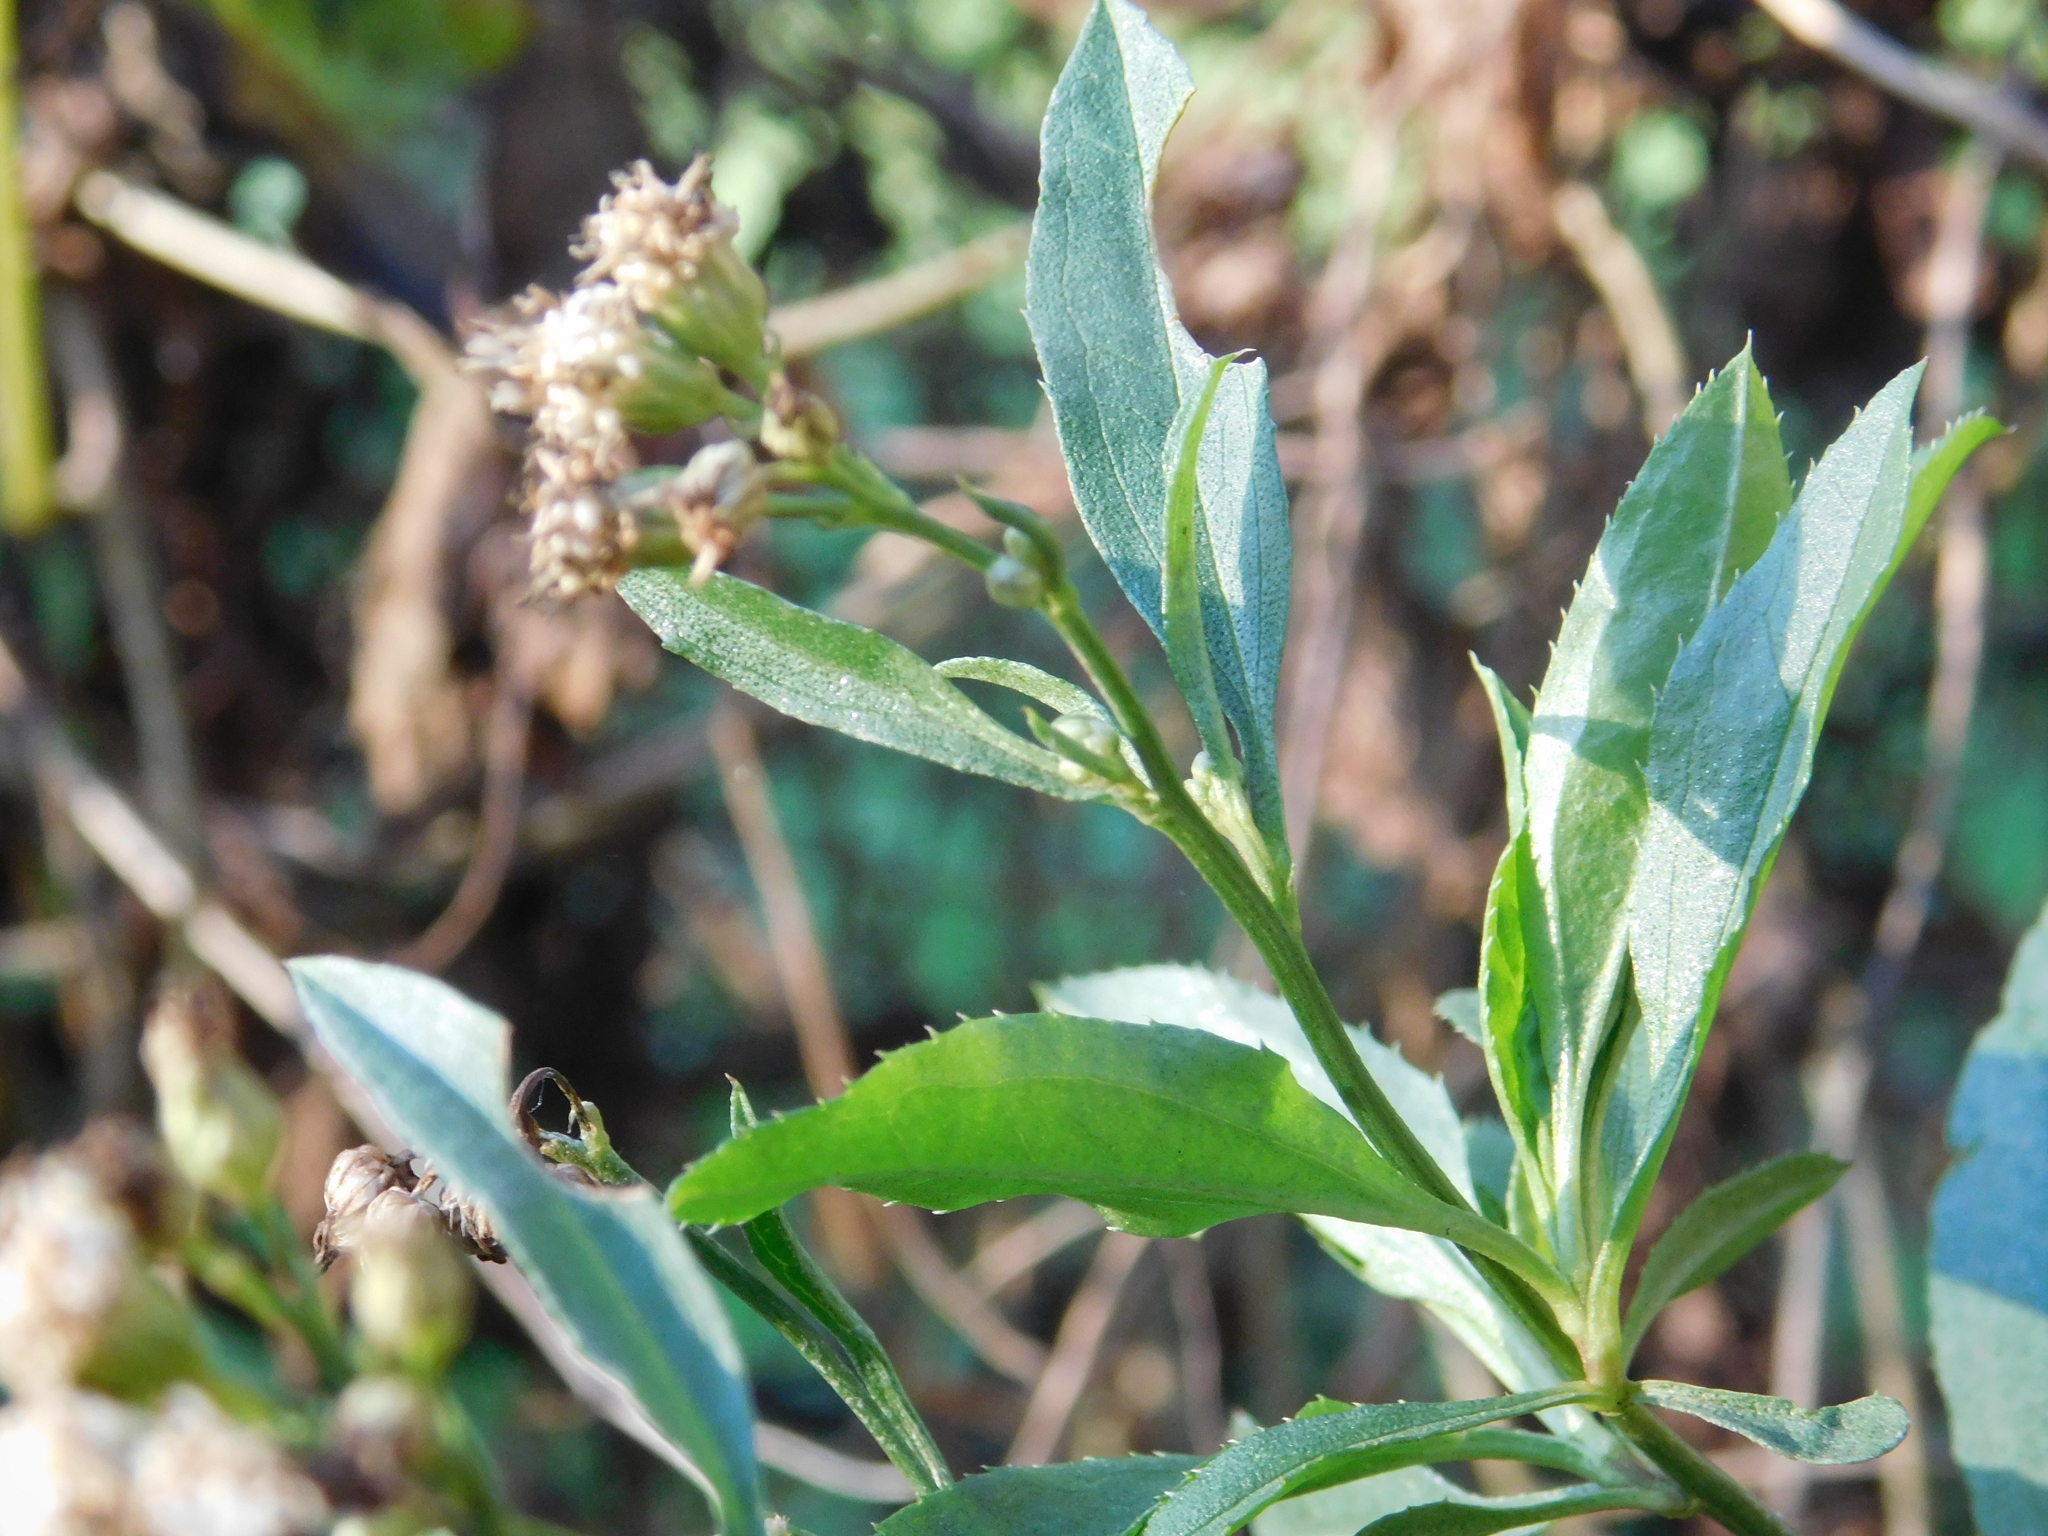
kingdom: Plantae
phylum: Tracheophyta
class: Magnoliopsida
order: Asterales
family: Asteraceae
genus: Baccharis
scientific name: Baccharis glutinosa
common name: Saltmarsh baccharis
